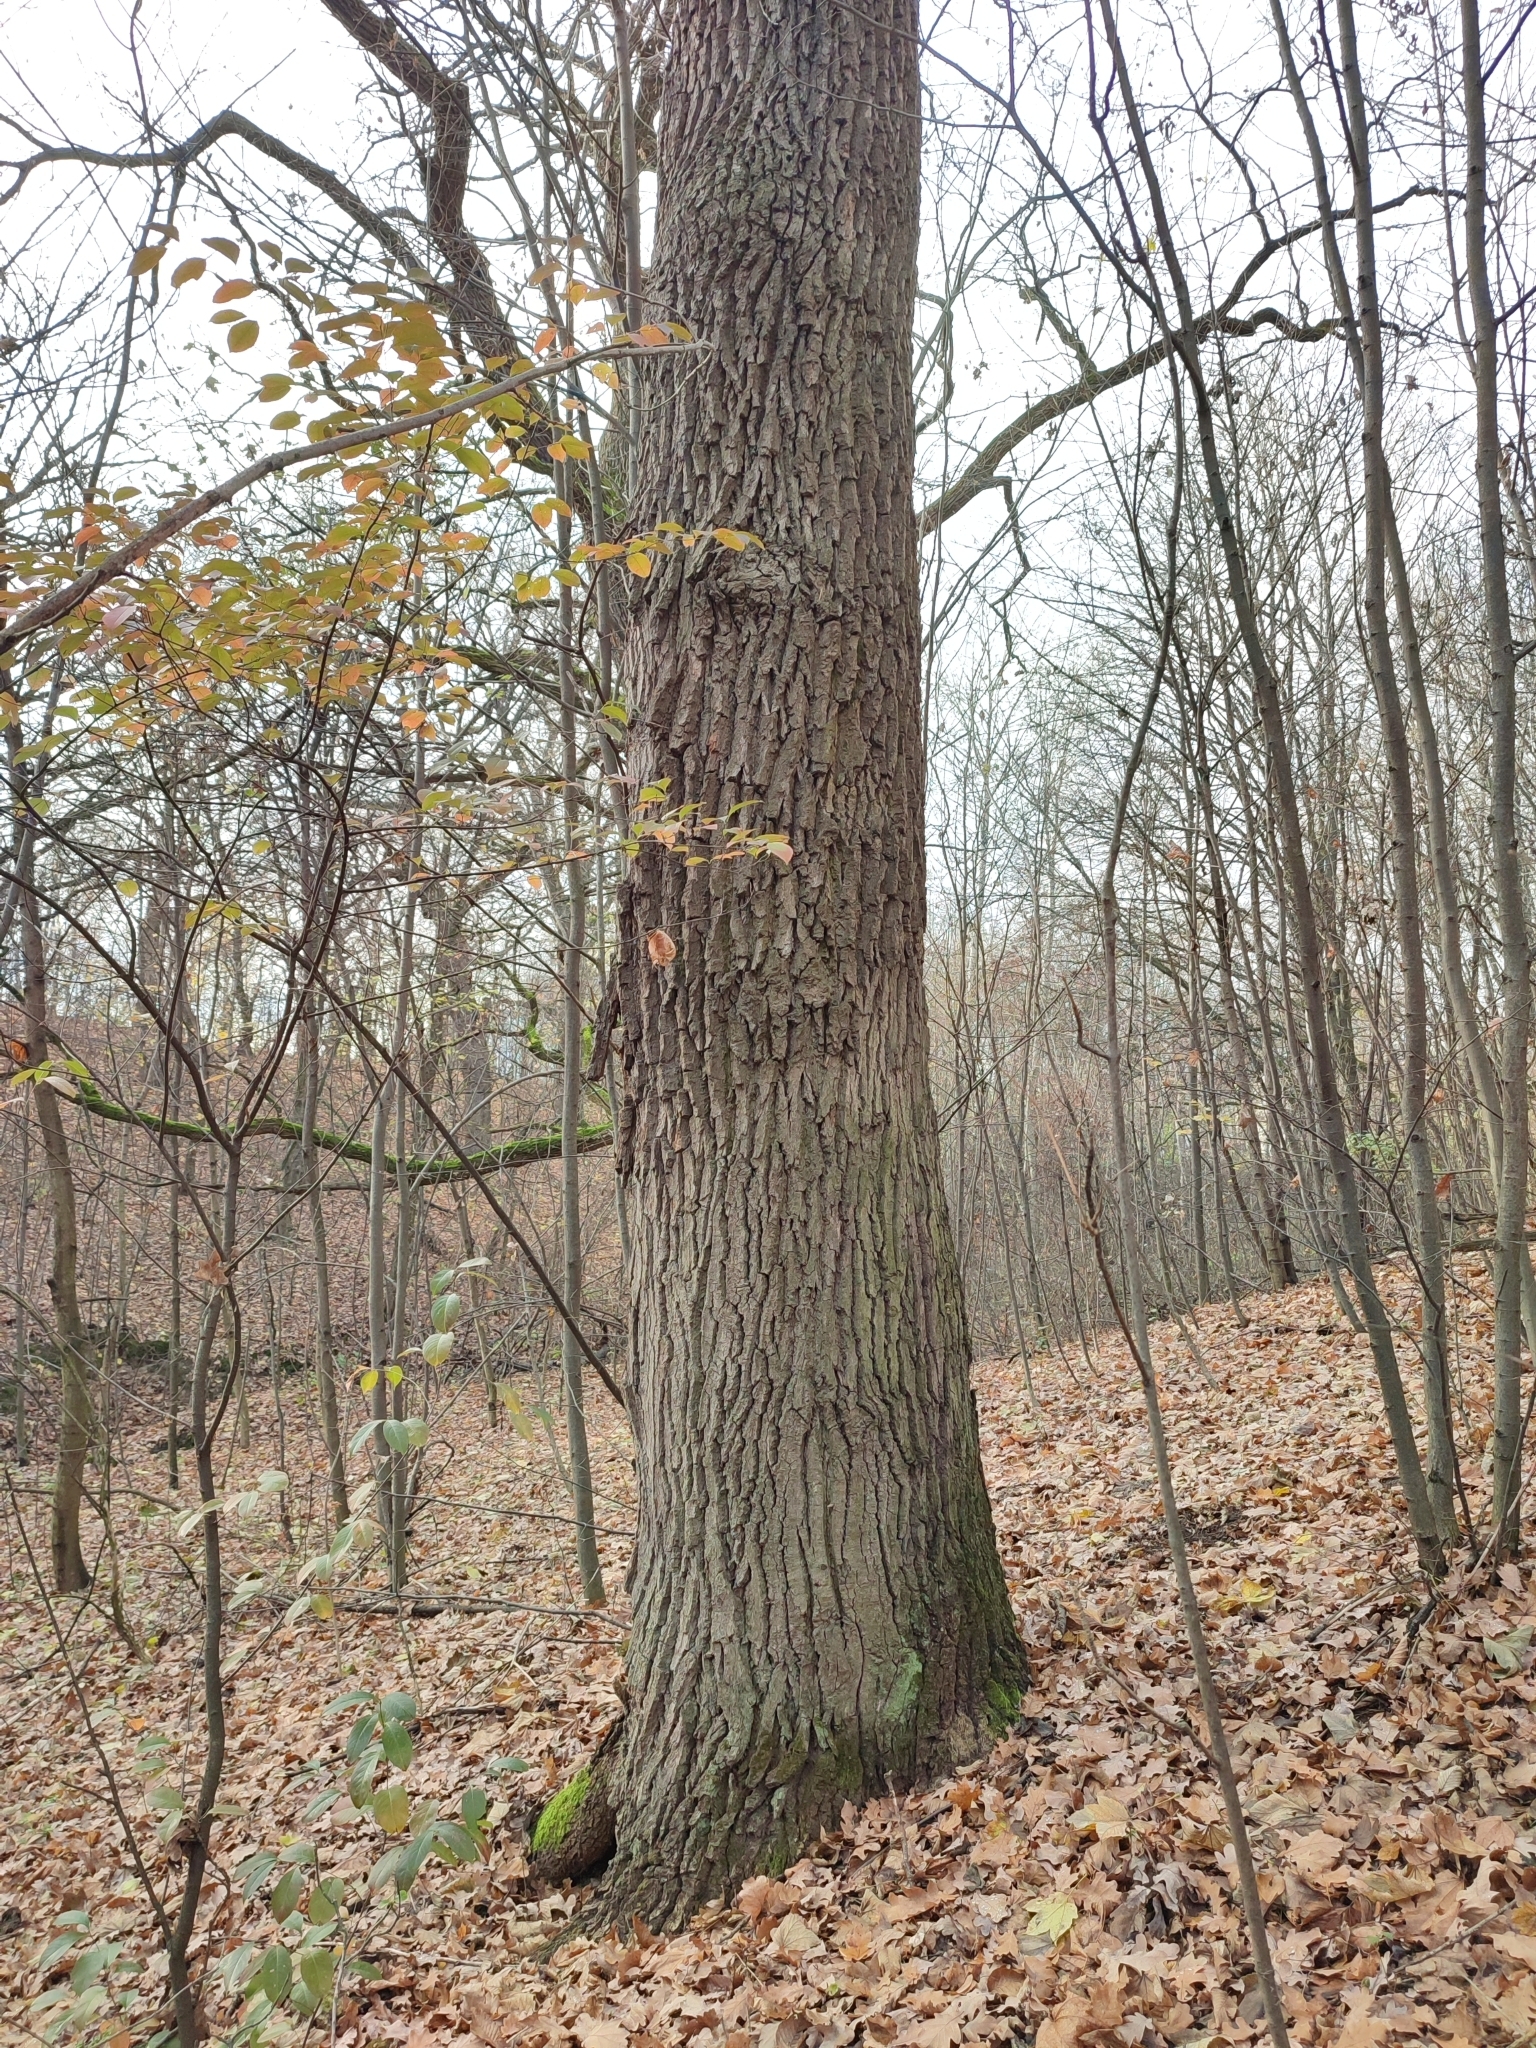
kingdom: Plantae
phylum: Tracheophyta
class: Magnoliopsida
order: Fagales
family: Fagaceae
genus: Quercus
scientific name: Quercus robur
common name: Pedunculate oak
